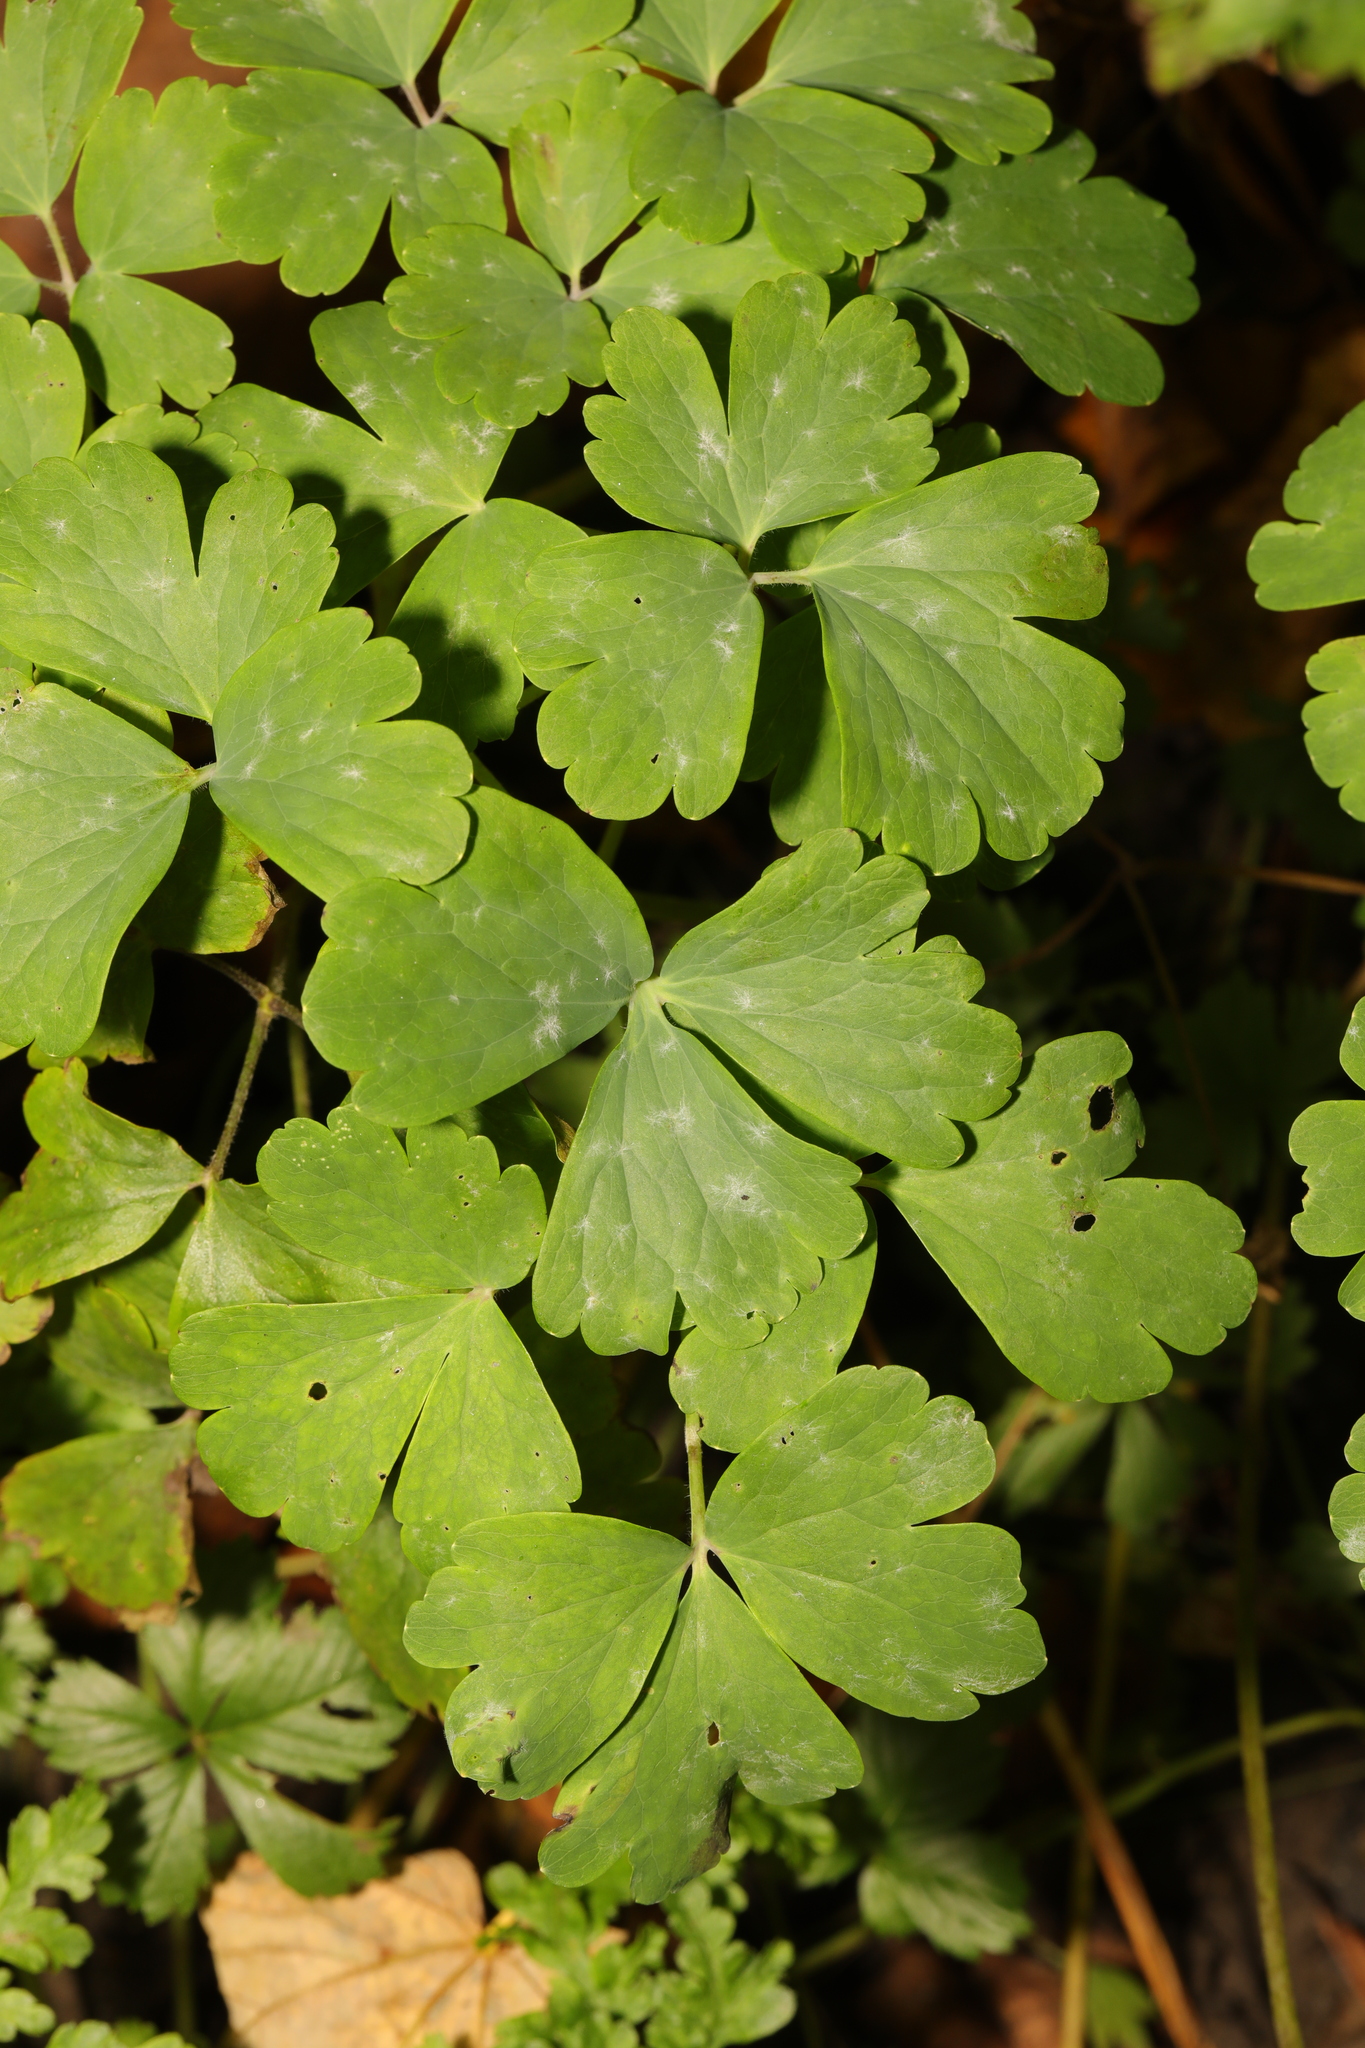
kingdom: Plantae
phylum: Tracheophyta
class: Magnoliopsida
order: Ranunculales
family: Ranunculaceae
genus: Aquilegia
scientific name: Aquilegia vulgaris
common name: Columbine
